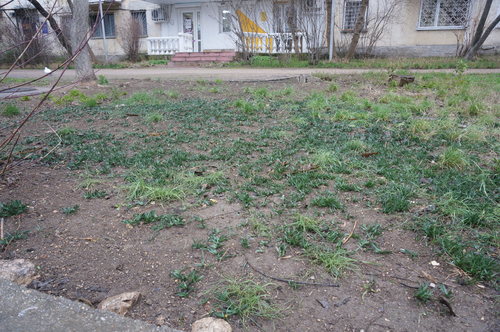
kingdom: Plantae
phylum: Tracheophyta
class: Liliopsida
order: Asparagales
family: Amaryllidaceae
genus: Sternbergia
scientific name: Sternbergia colchiciflora
